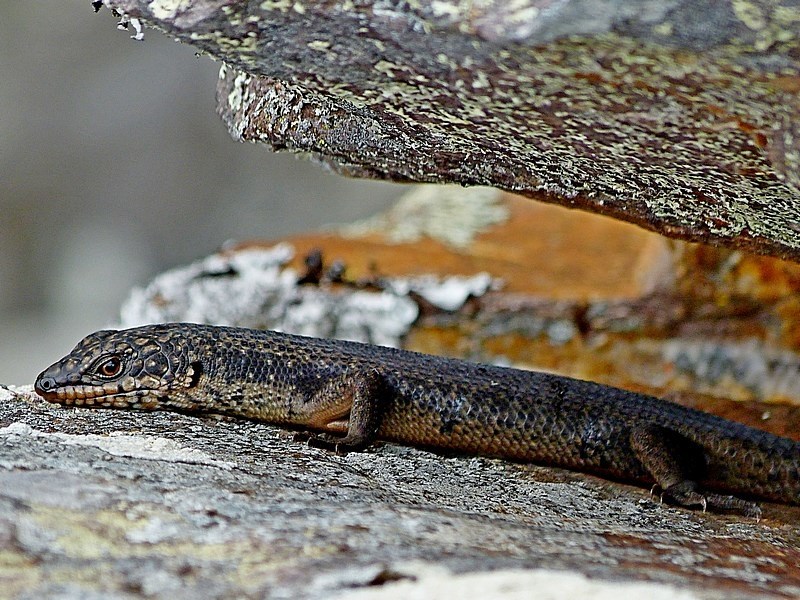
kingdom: Animalia
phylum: Chordata
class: Squamata
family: Scincidae
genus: Egernia
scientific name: Egernia saxatilis
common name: Black crevice-skink
